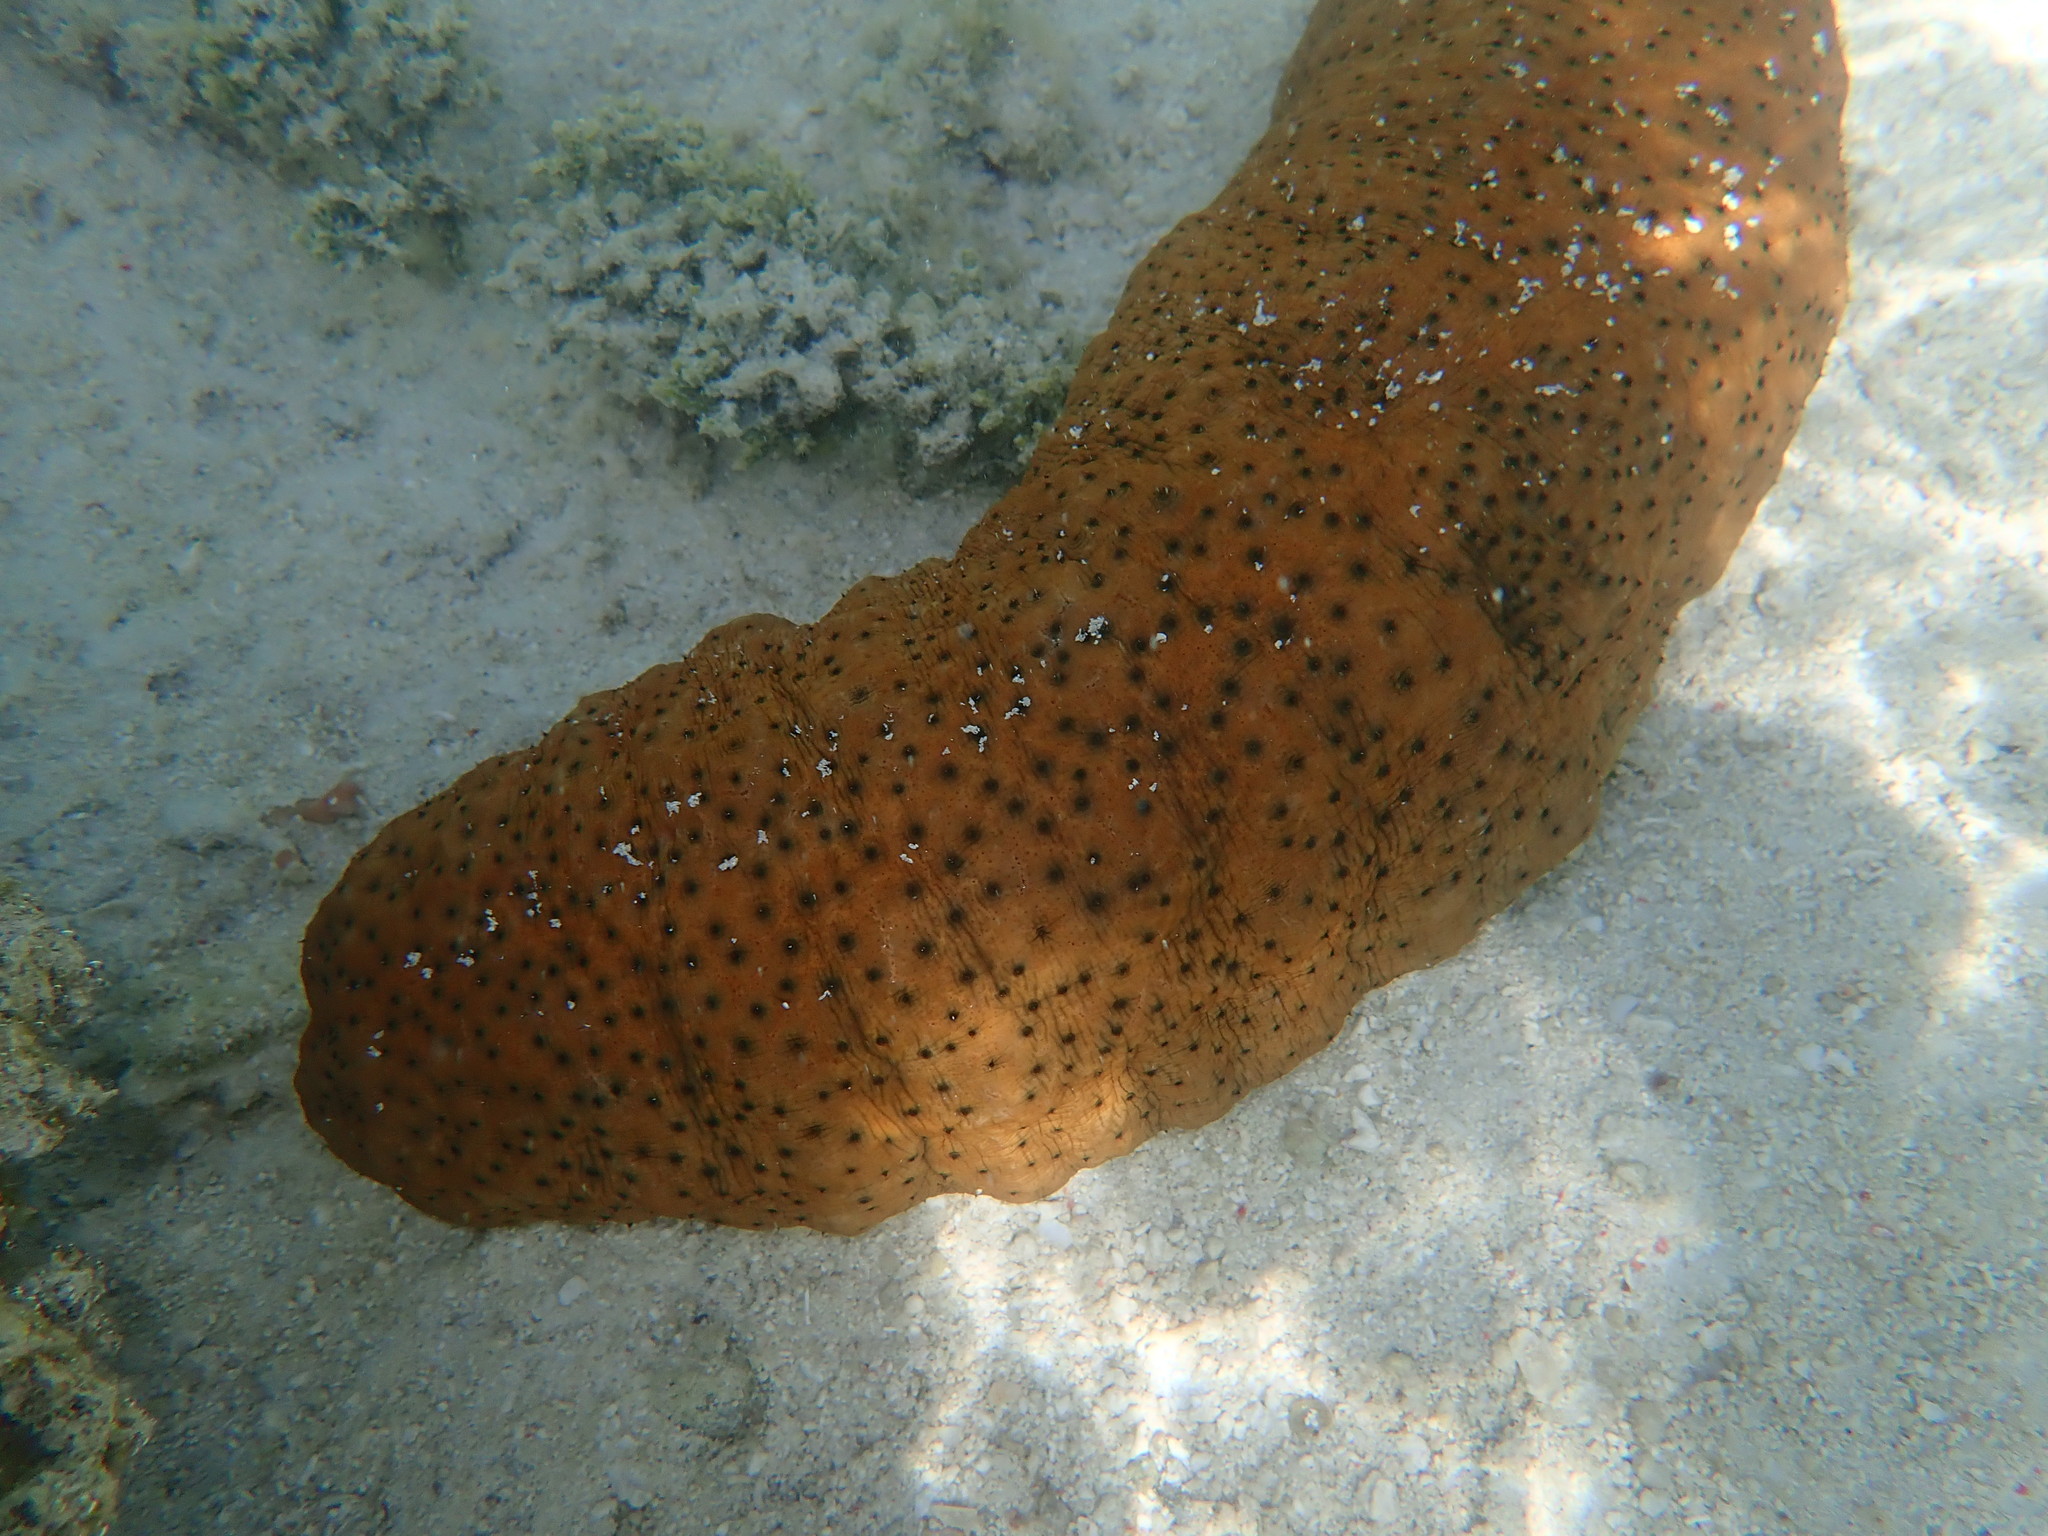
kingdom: Animalia
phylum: Echinodermata
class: Holothuroidea
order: Synallactida
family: Stichopodidae
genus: Stichopus
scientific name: Stichopus herrmanni
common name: Curryfish
